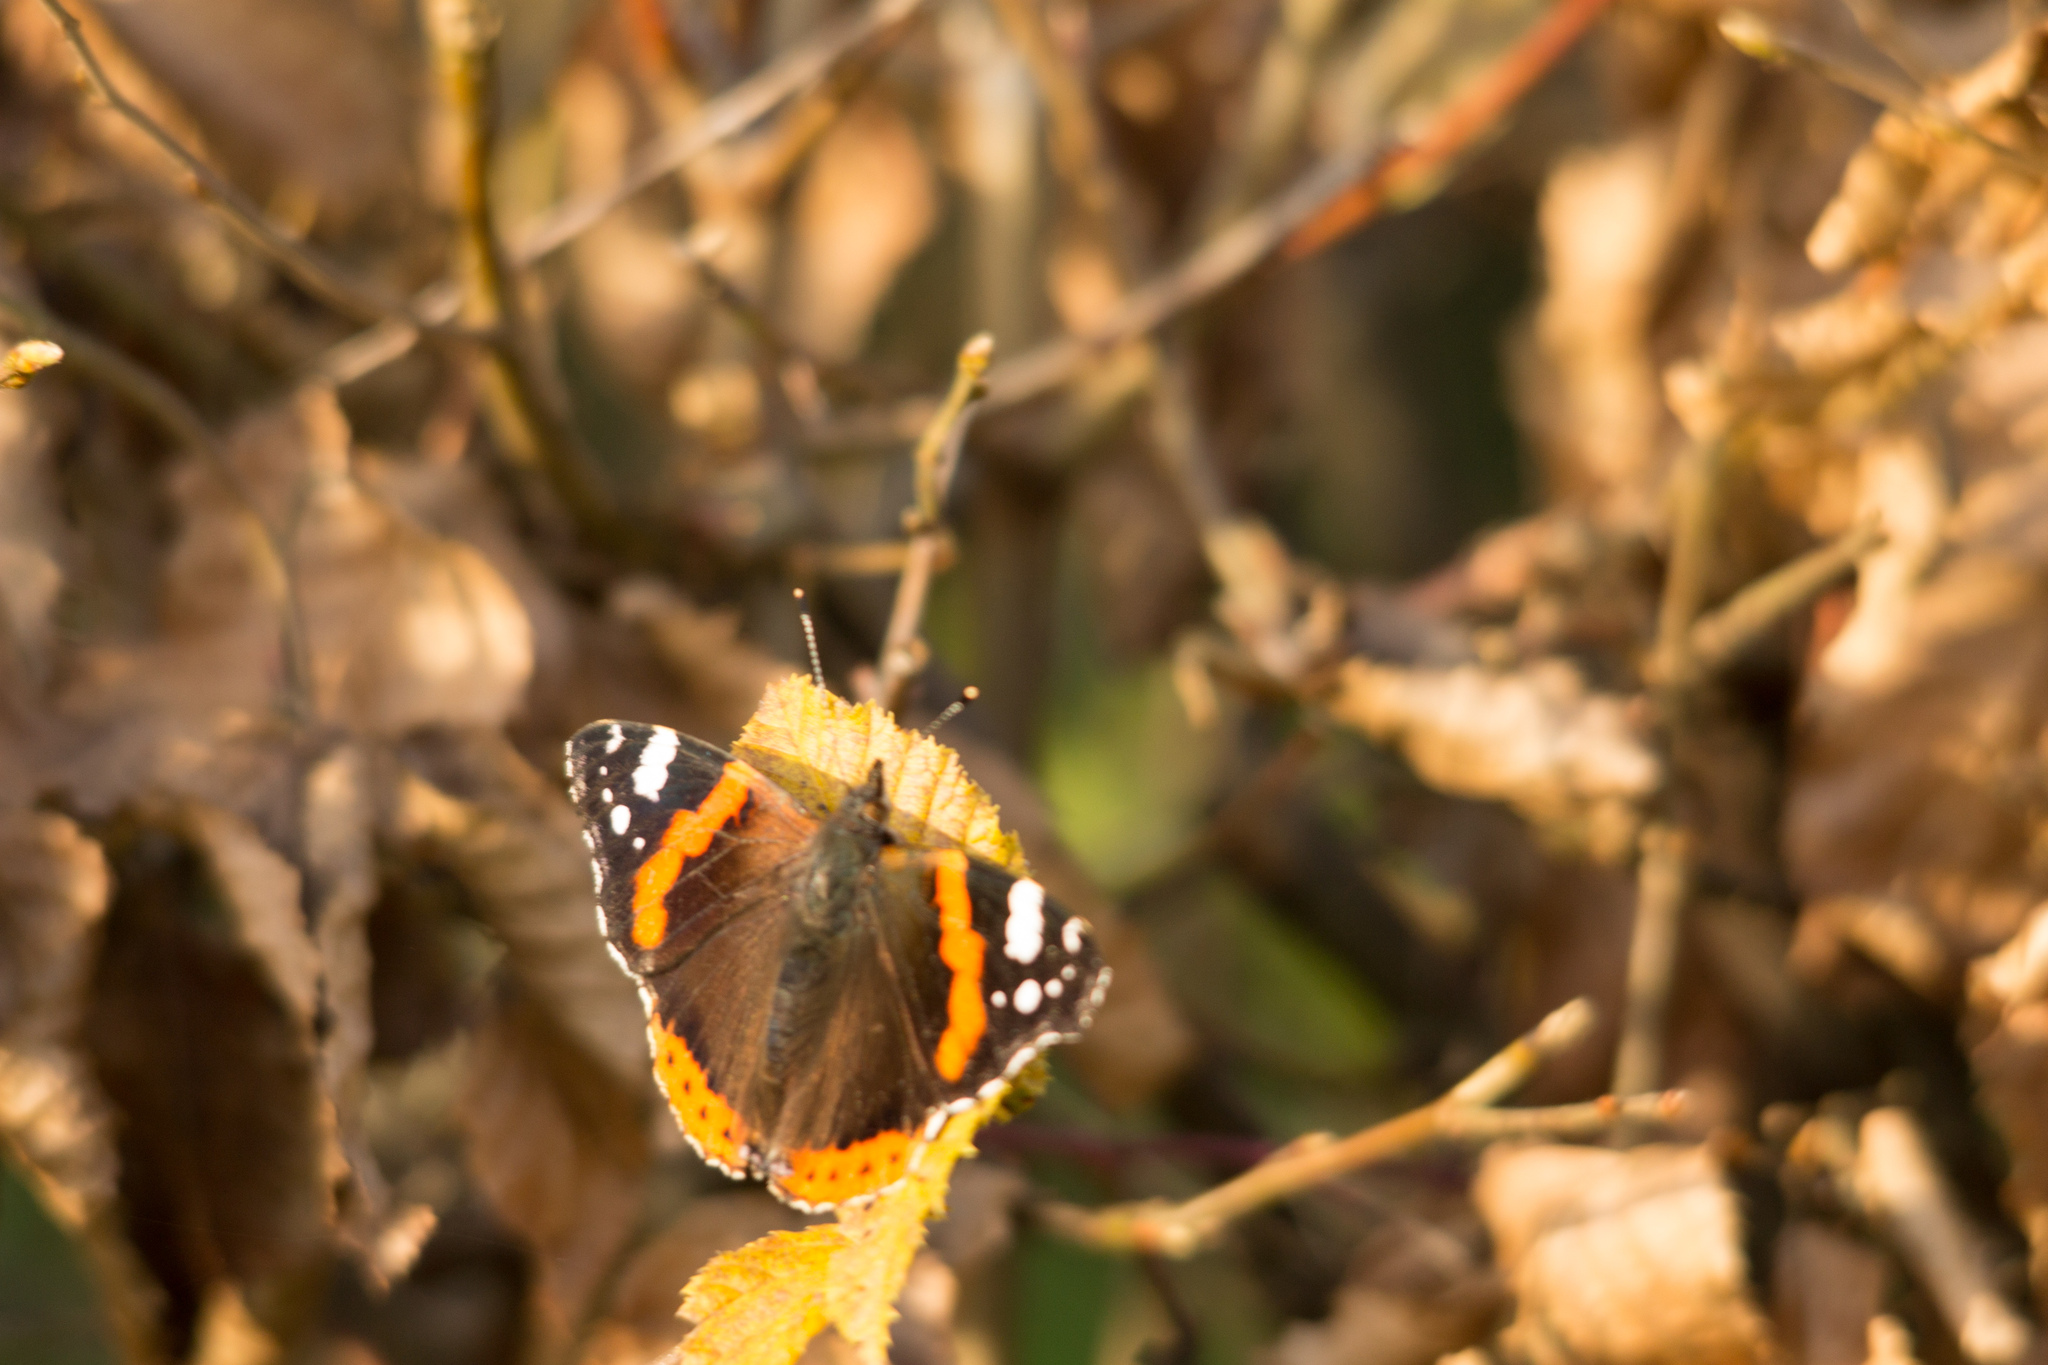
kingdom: Animalia
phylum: Arthropoda
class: Insecta
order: Lepidoptera
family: Nymphalidae
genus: Vanessa
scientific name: Vanessa atalanta
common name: Red admiral
